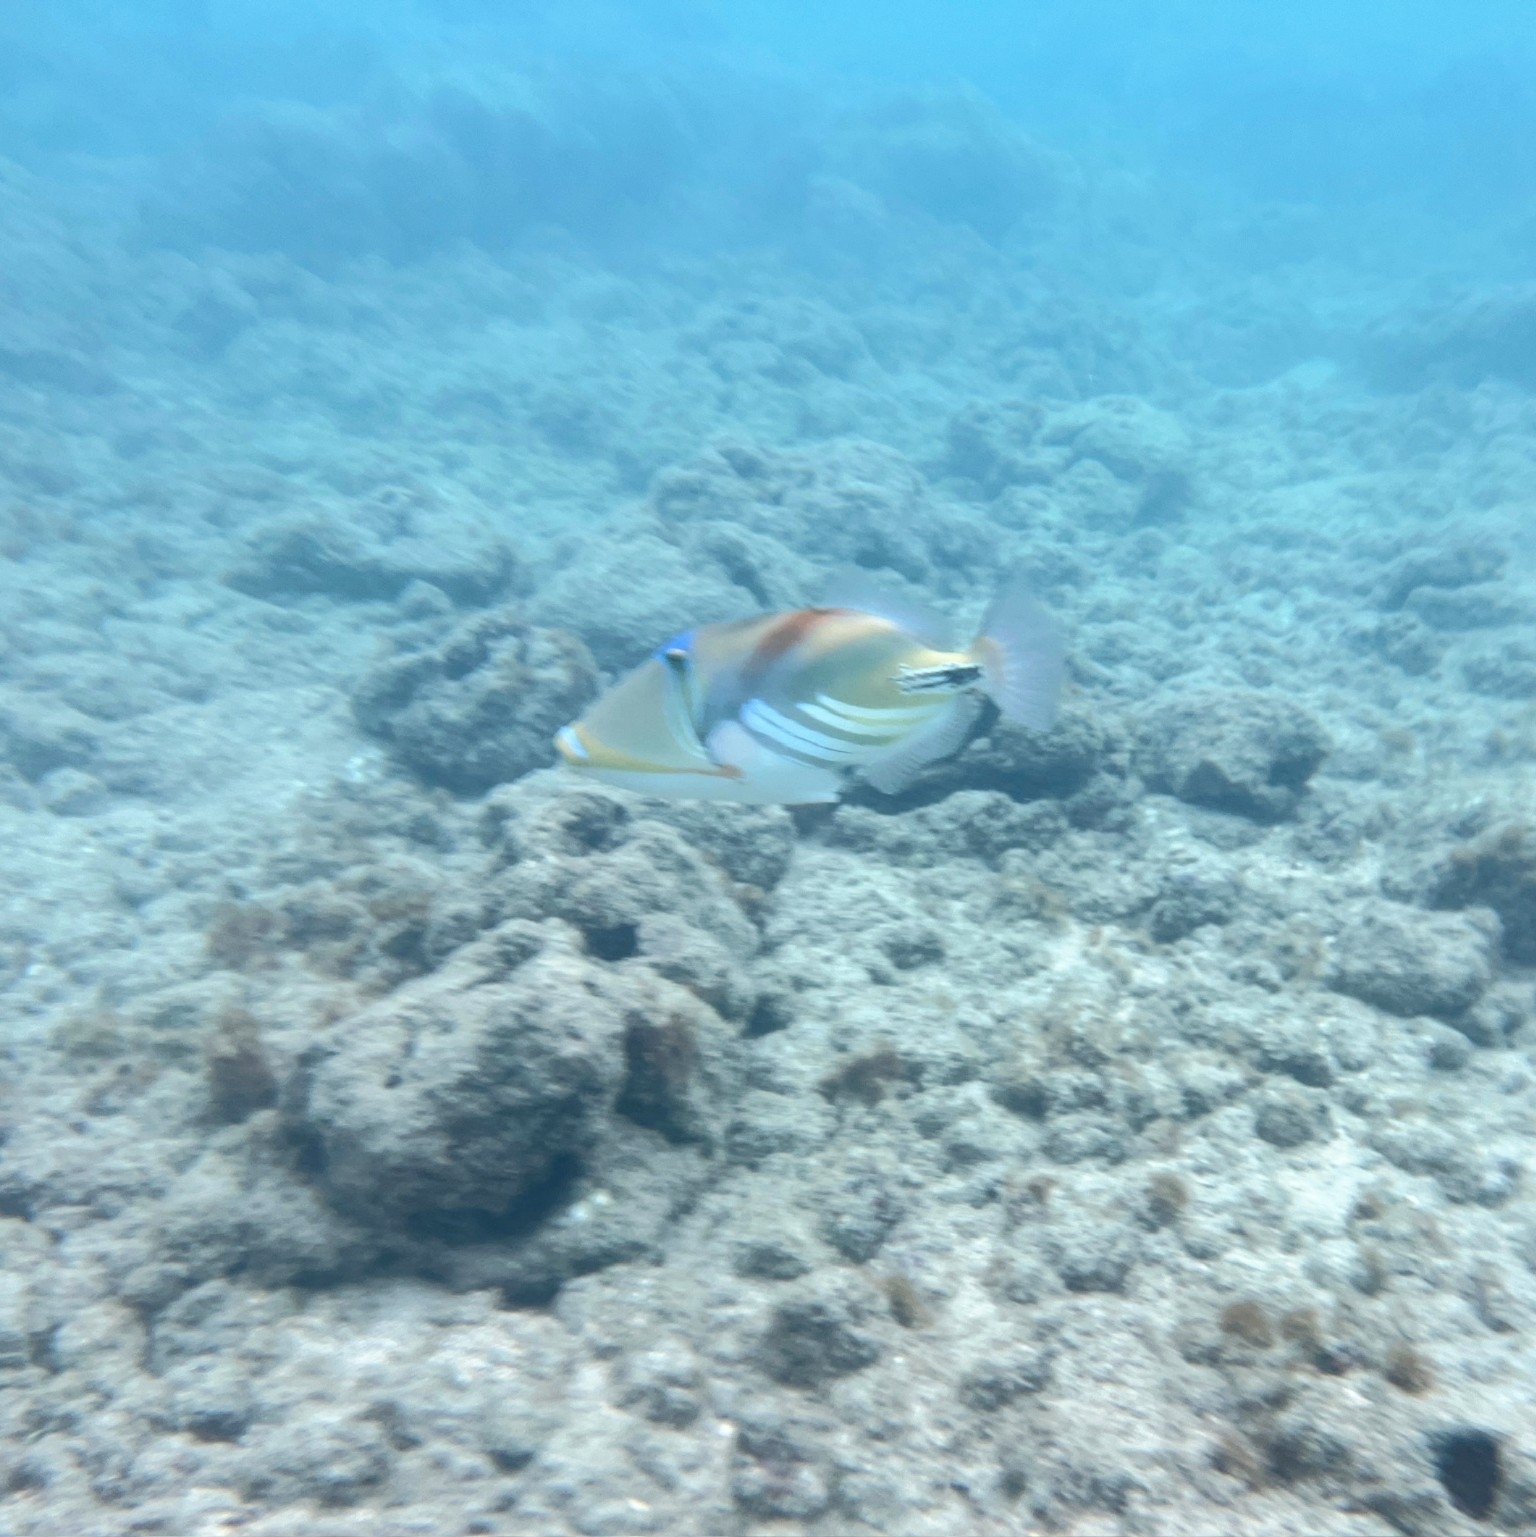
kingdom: Animalia
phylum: Chordata
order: Tetraodontiformes
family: Balistidae
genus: Rhinecanthus
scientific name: Rhinecanthus aculeatus
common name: White-banded triggerfish
